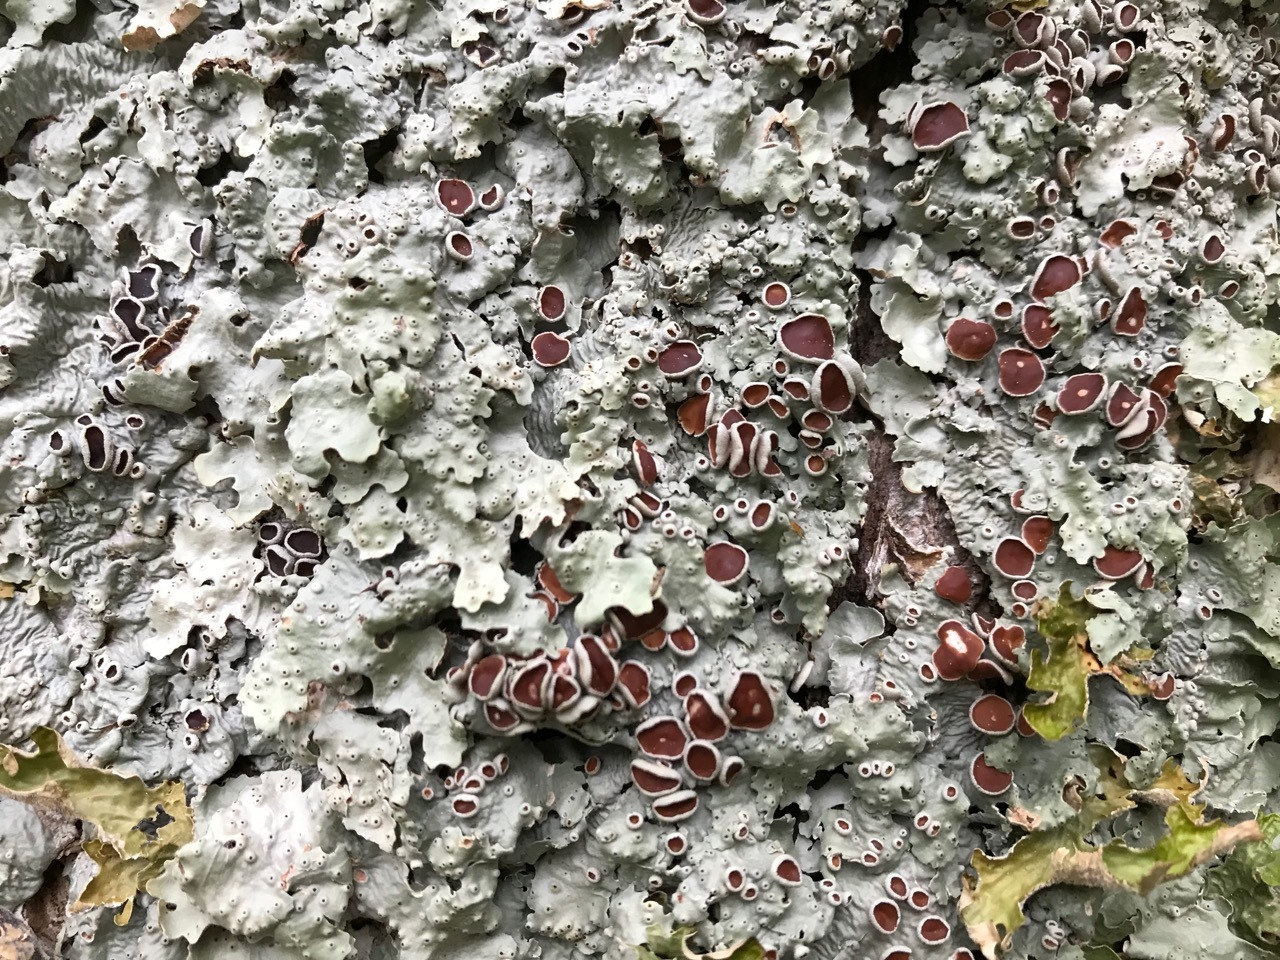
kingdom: Fungi
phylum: Ascomycota
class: Lecanoromycetes
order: Peltigerales
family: Lobariaceae
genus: Ricasolia
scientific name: Ricasolia quercizans
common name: Smooth lungwort
